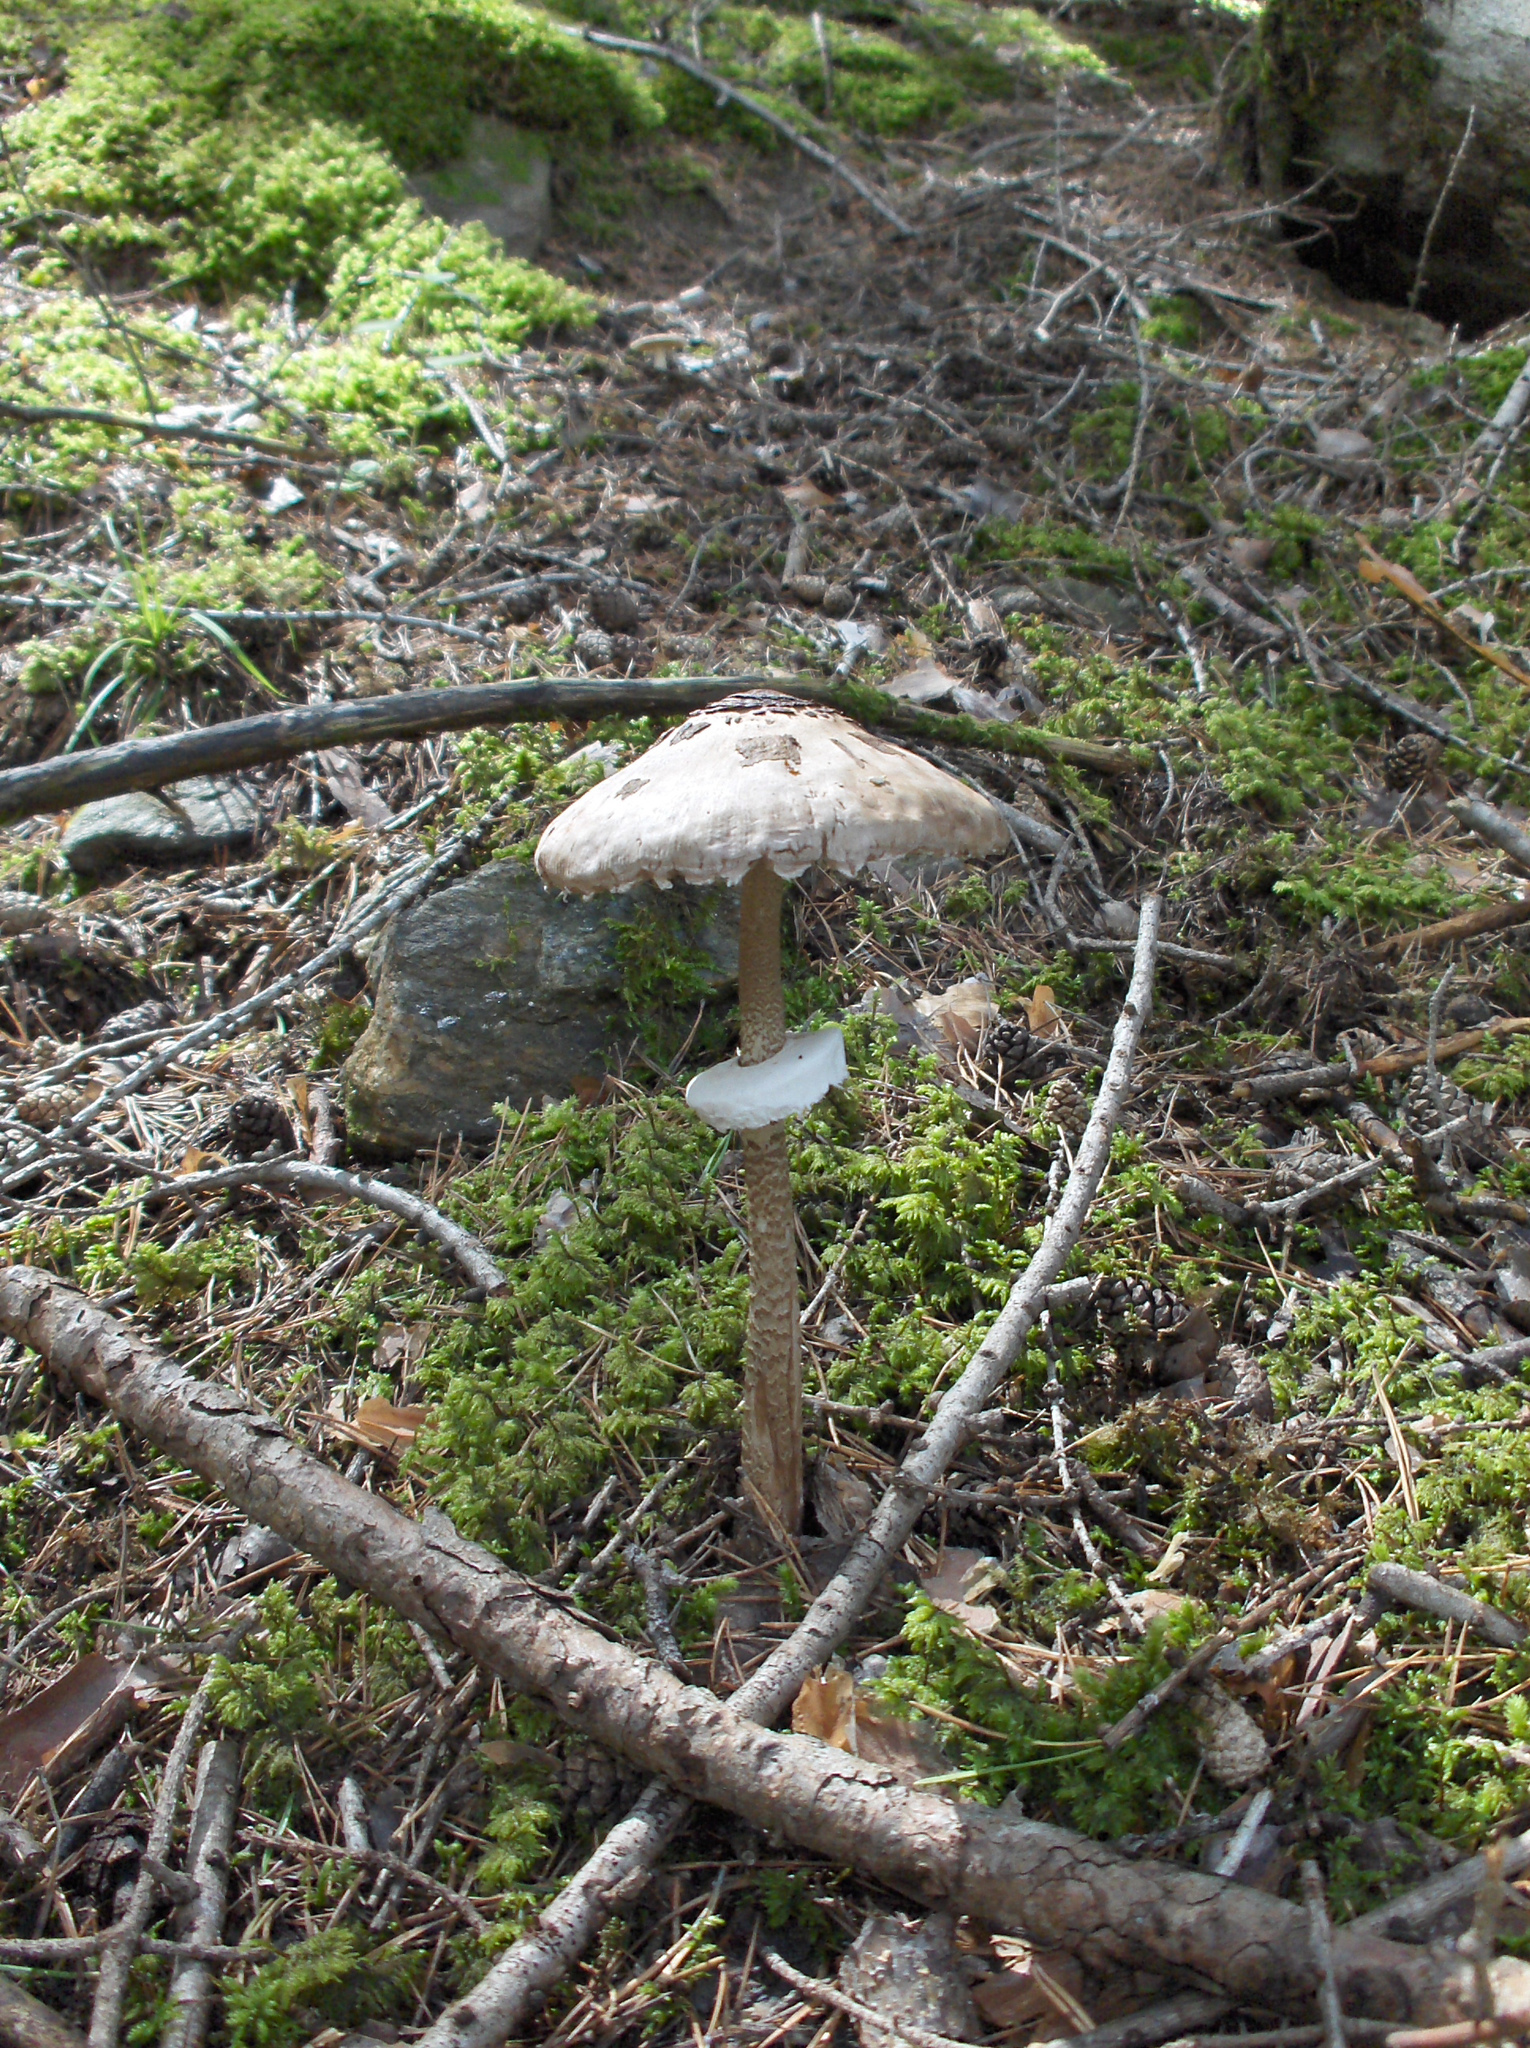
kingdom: Fungi
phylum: Basidiomycota
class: Agaricomycetes
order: Agaricales
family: Agaricaceae
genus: Macrolepiota
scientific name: Macrolepiota procera
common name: Parasol
